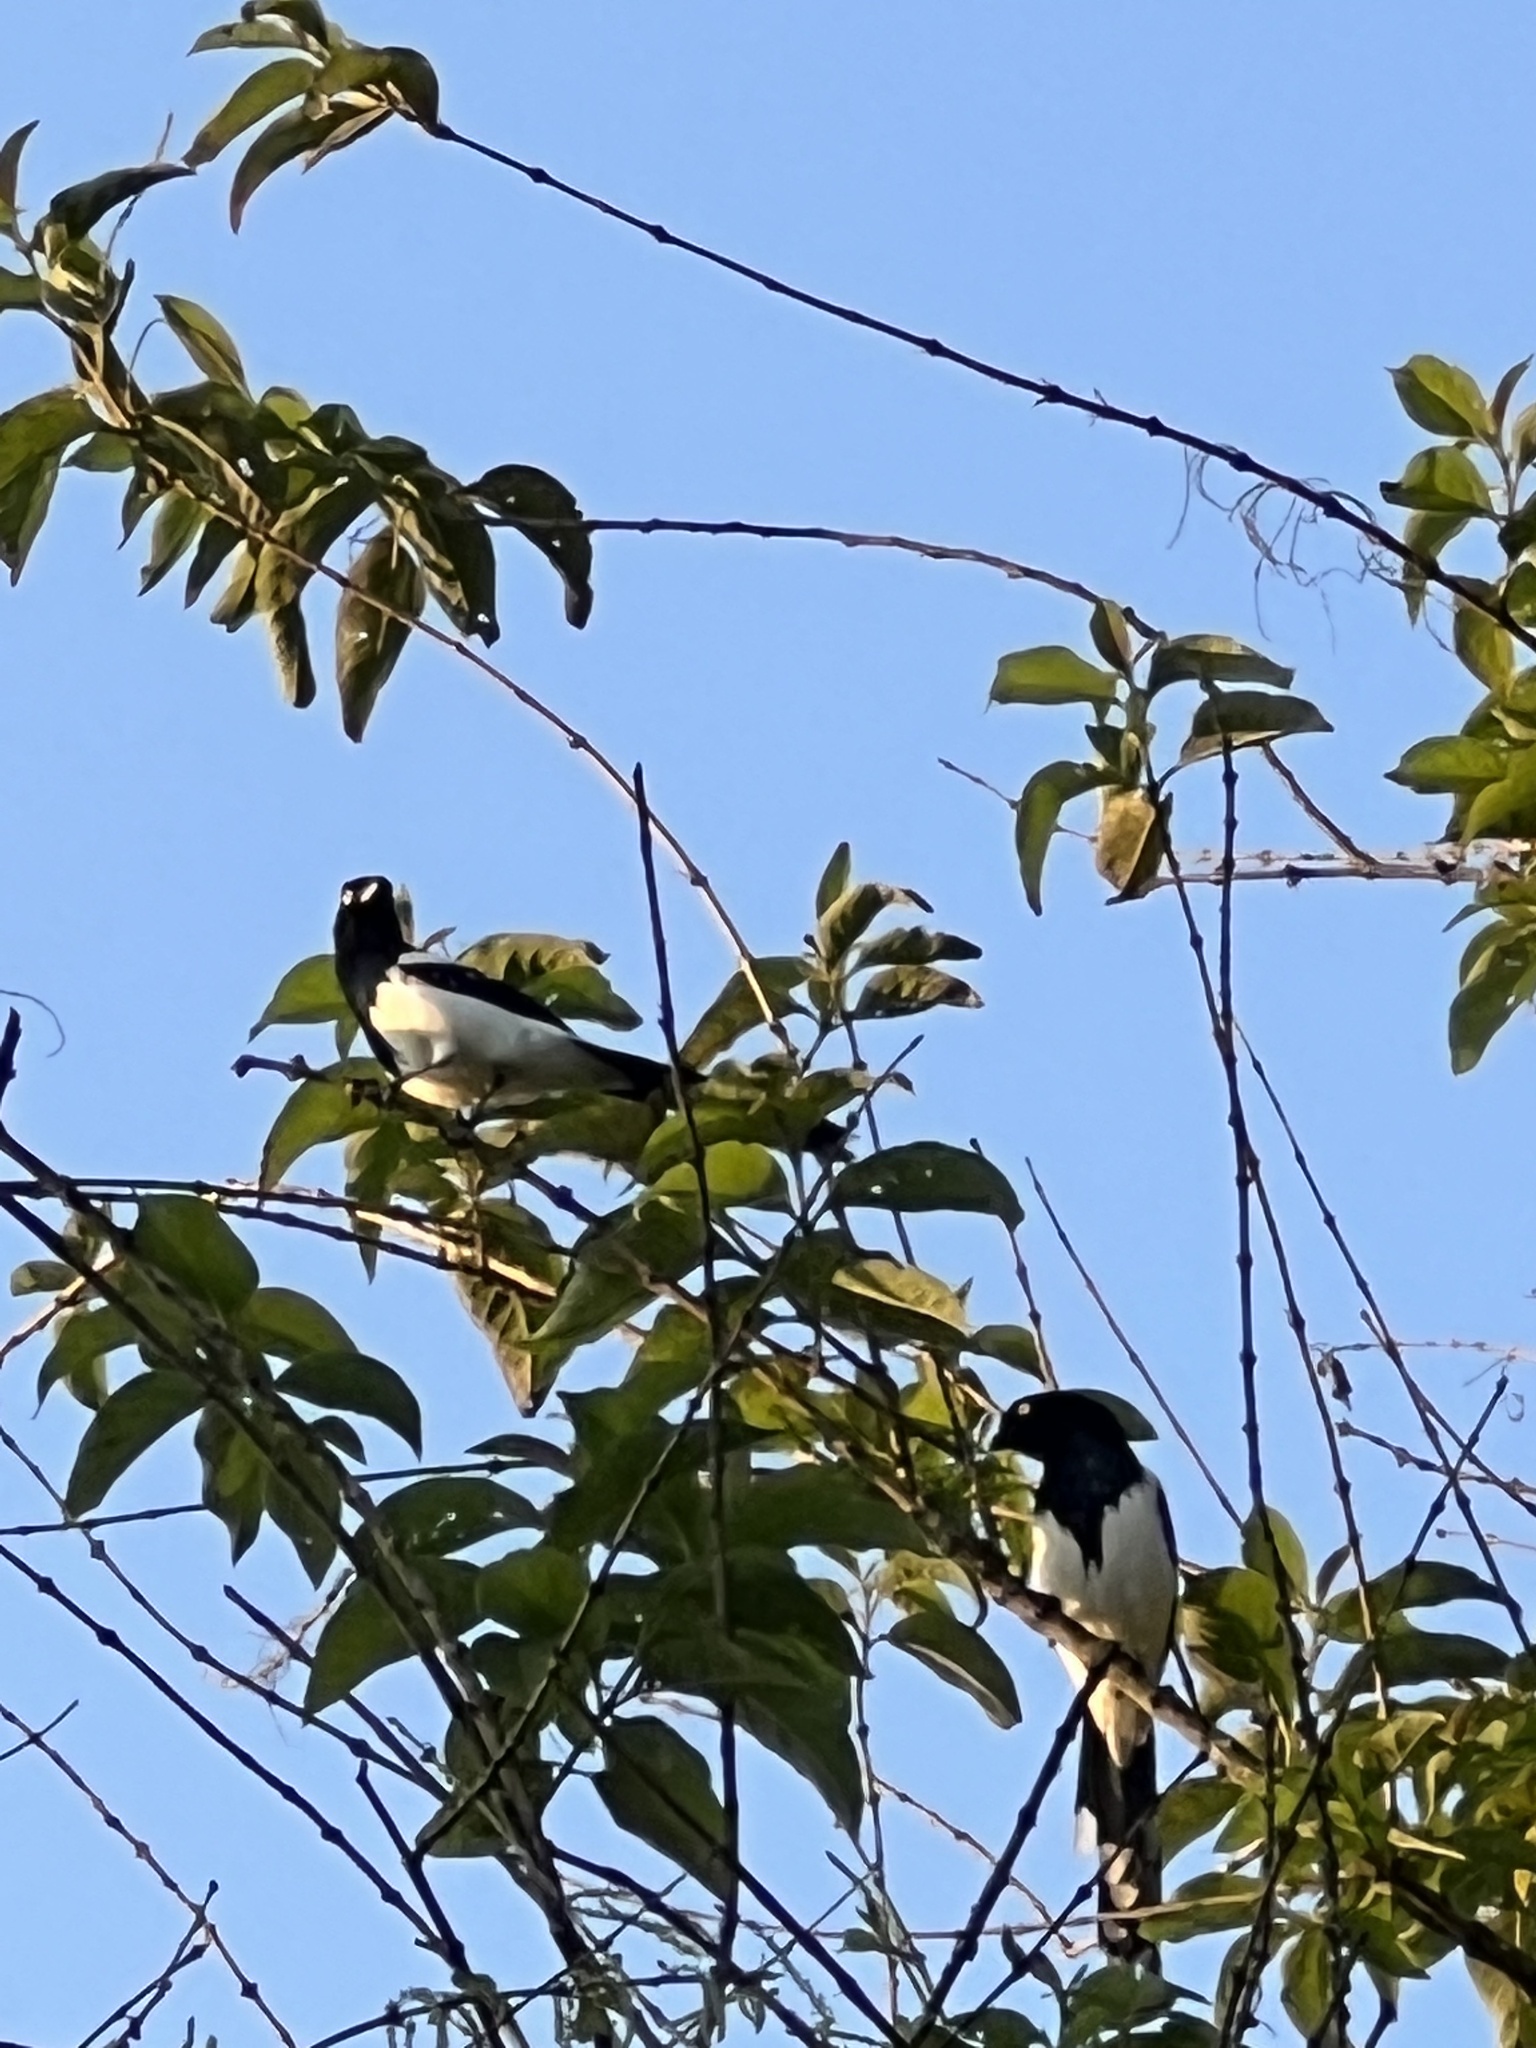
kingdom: Animalia
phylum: Chordata
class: Aves
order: Passeriformes
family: Thraupidae
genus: Cissopis
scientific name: Cissopis leverianus
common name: Magpie tanager
